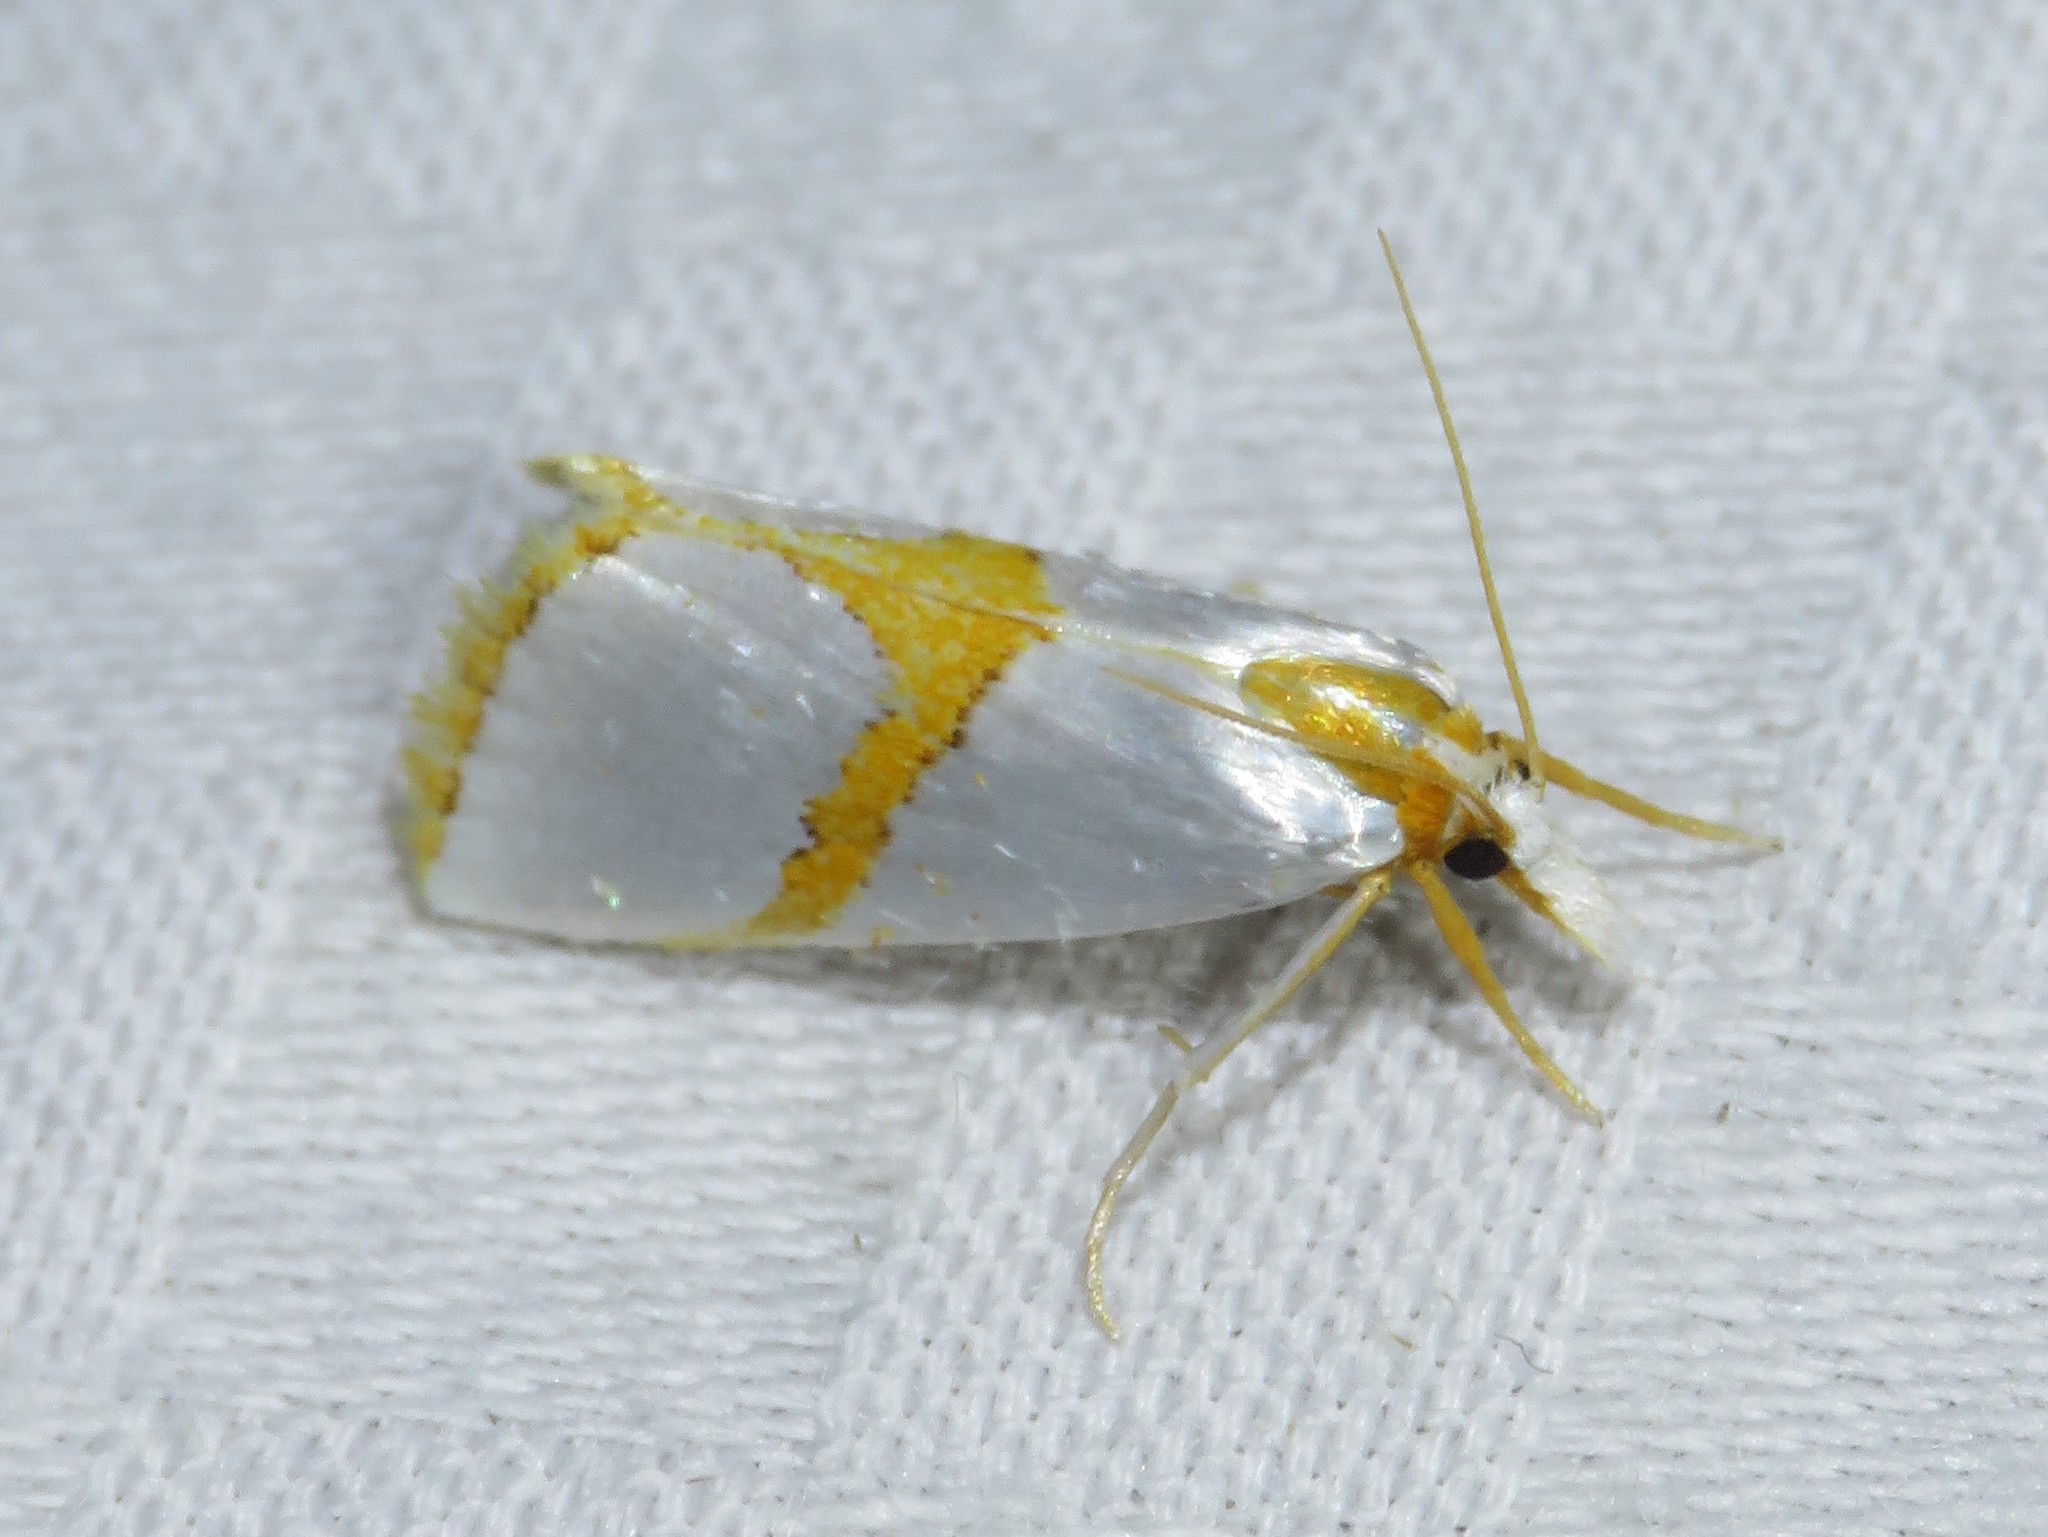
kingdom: Animalia
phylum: Arthropoda
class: Insecta
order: Lepidoptera
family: Crambidae
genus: Argyria
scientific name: Argyria auratella
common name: Curve-lined argyria moth
